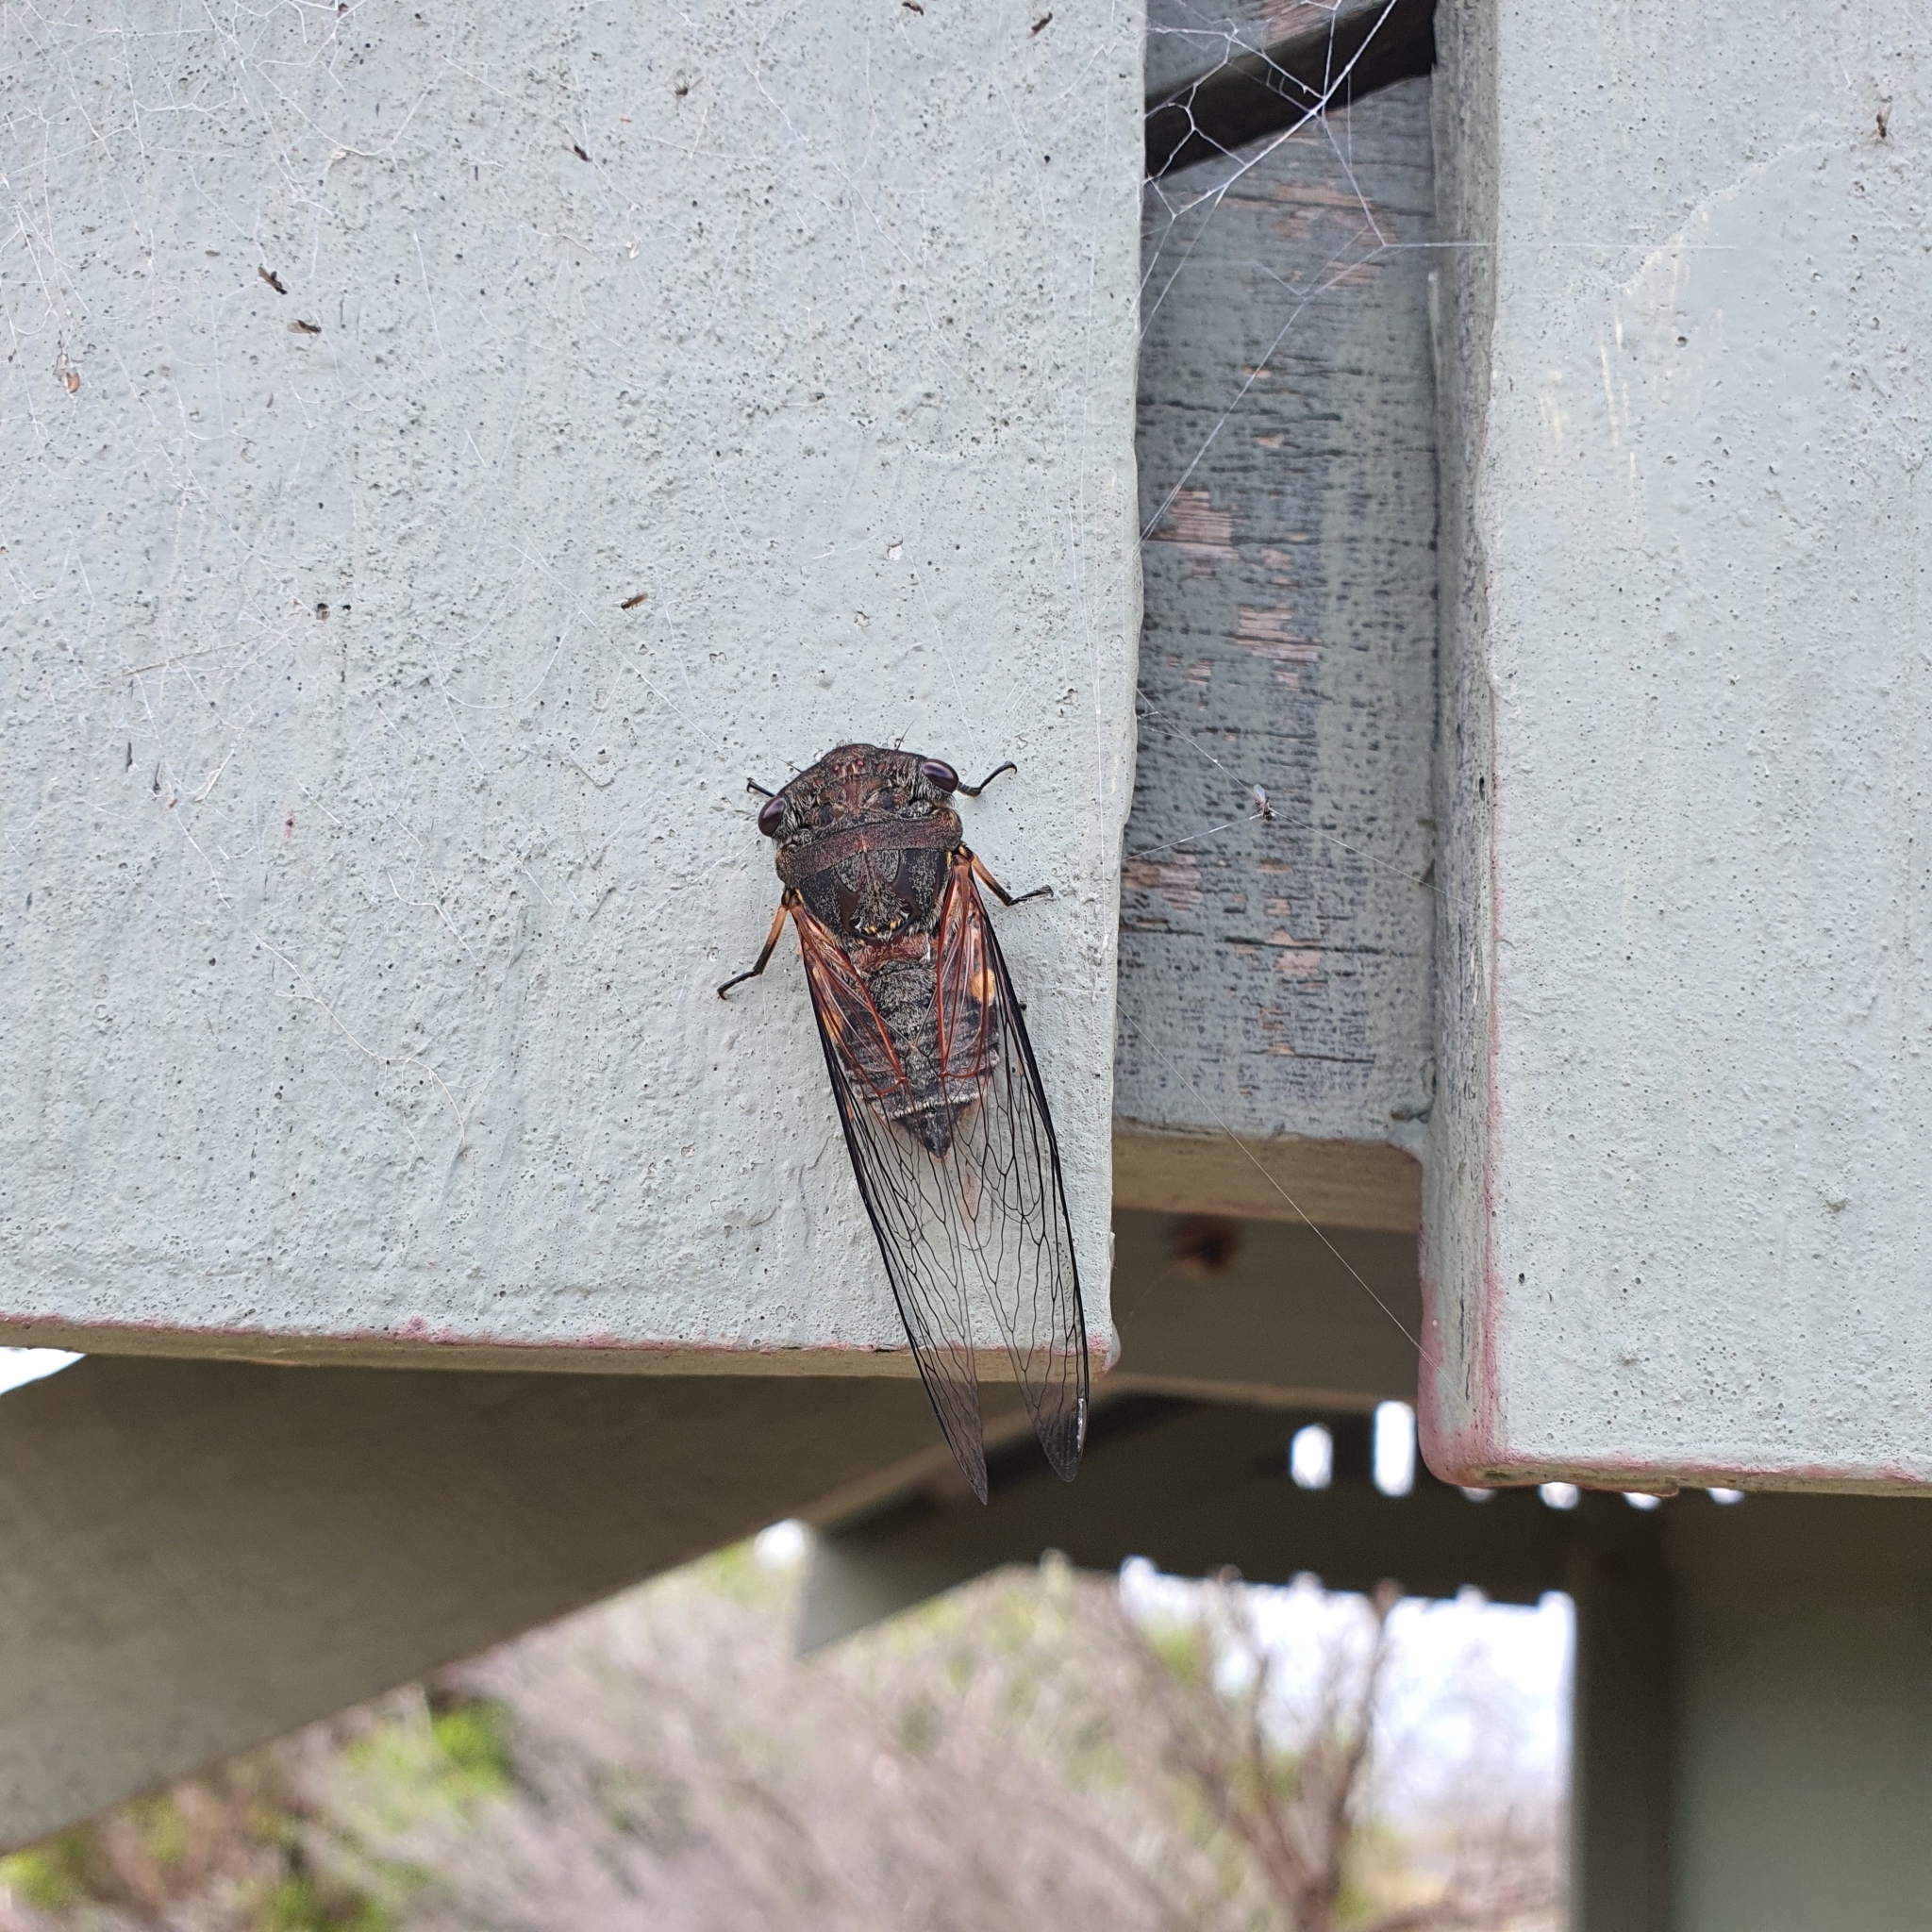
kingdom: Animalia
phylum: Arthropoda
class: Insecta
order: Hemiptera
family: Cicadidae
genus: Psaltoda
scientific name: Psaltoda harrisii
